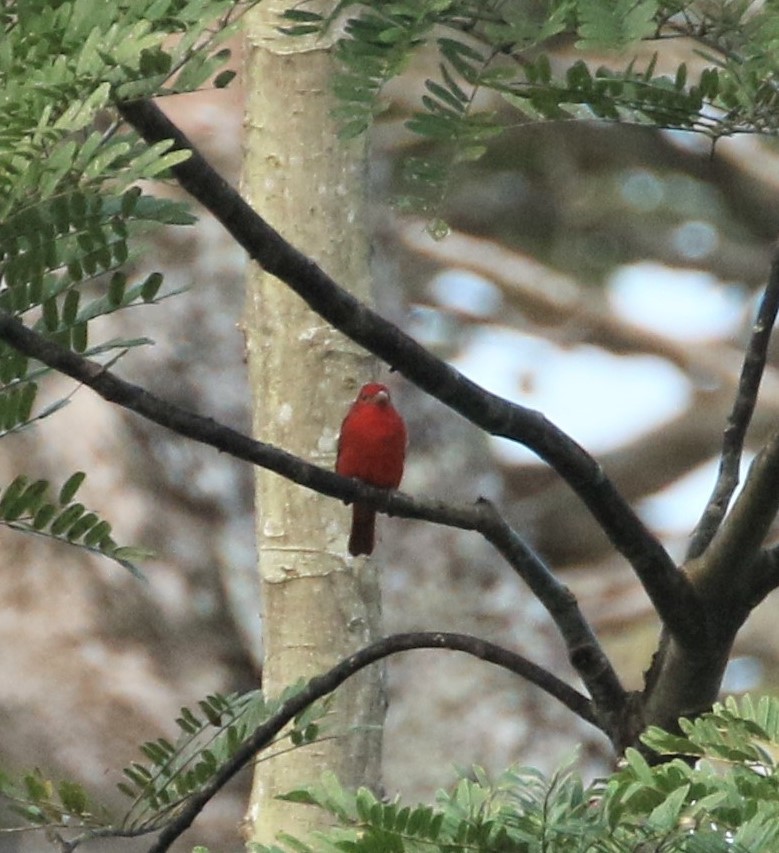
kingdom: Animalia
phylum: Chordata
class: Aves
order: Passeriformes
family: Cardinalidae
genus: Piranga
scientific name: Piranga olivacea
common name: Scarlet tanager
